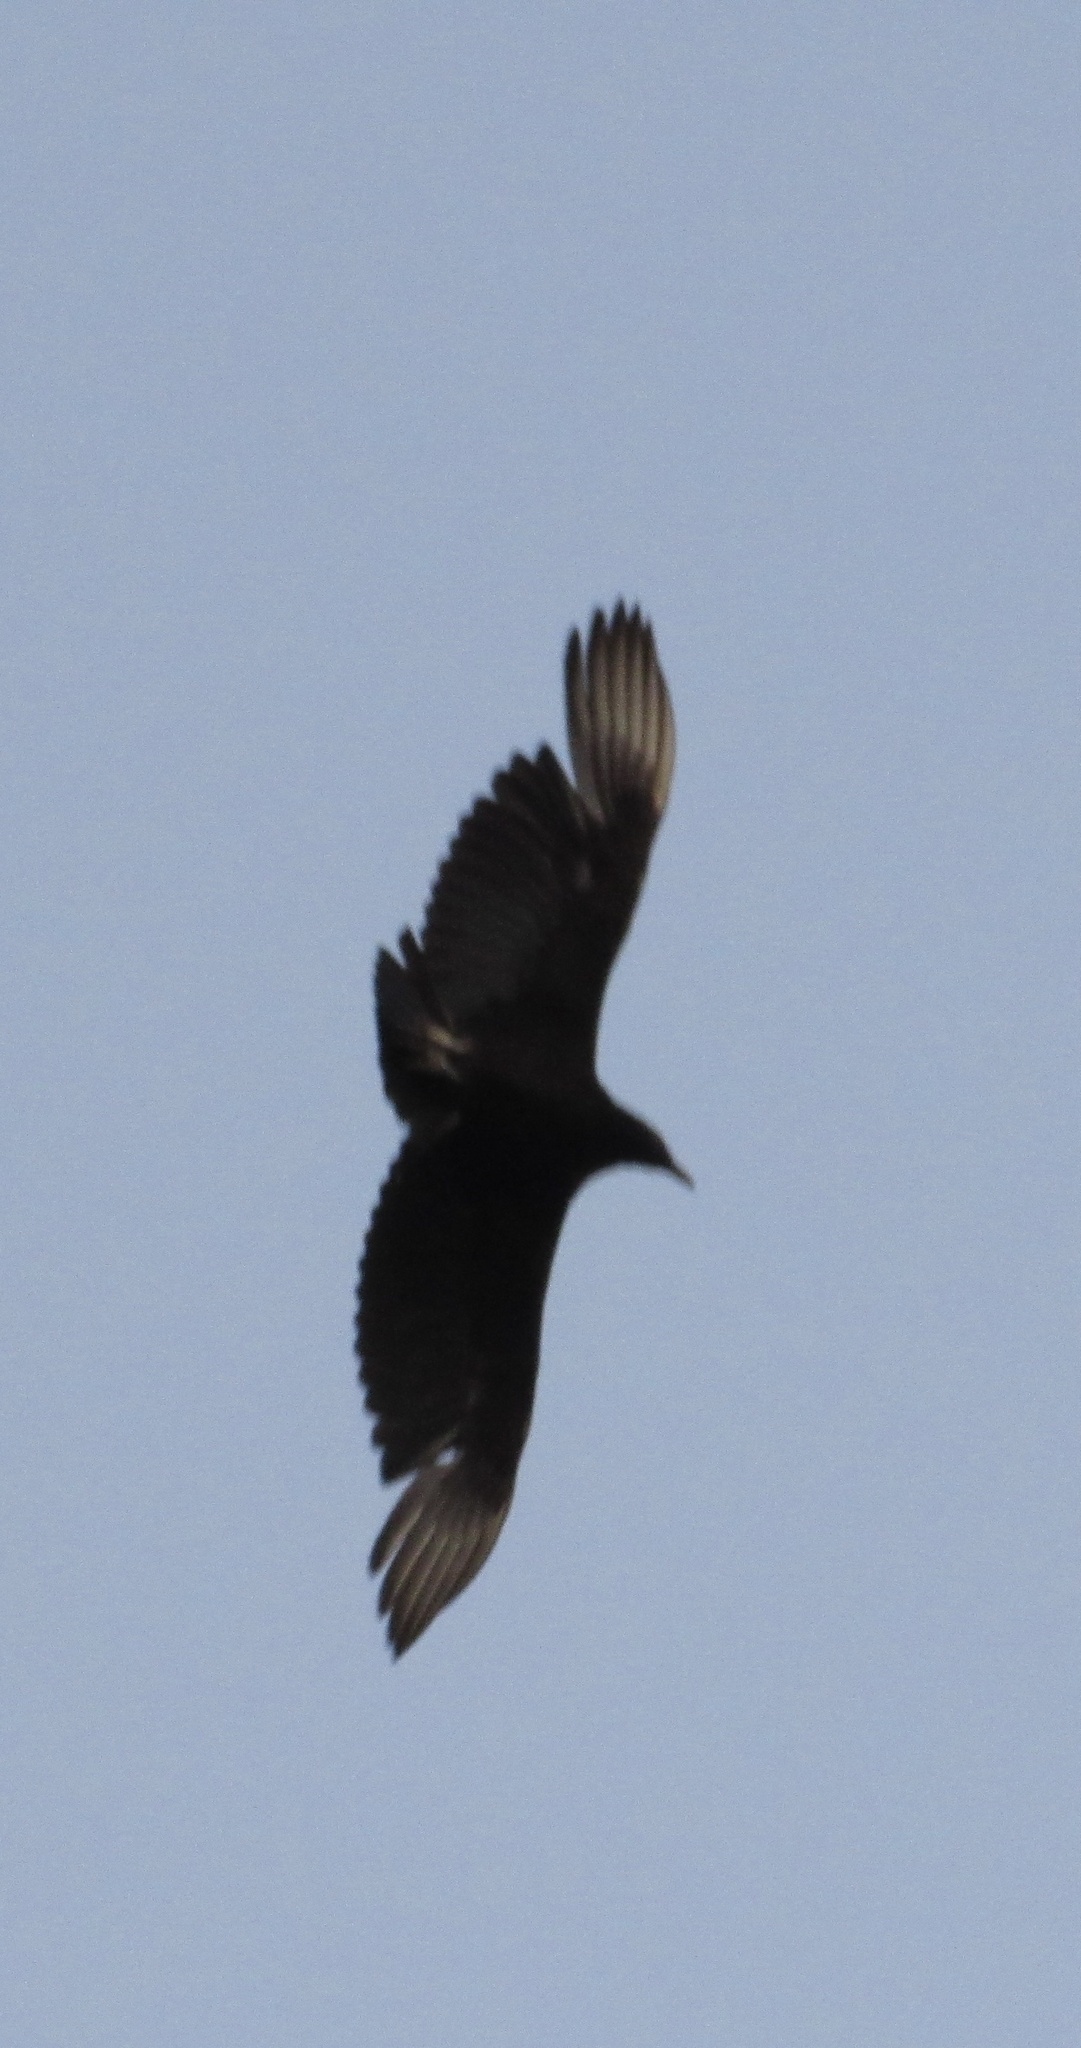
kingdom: Animalia
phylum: Chordata
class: Aves
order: Accipitriformes
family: Cathartidae
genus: Coragyps
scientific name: Coragyps atratus
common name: Black vulture
